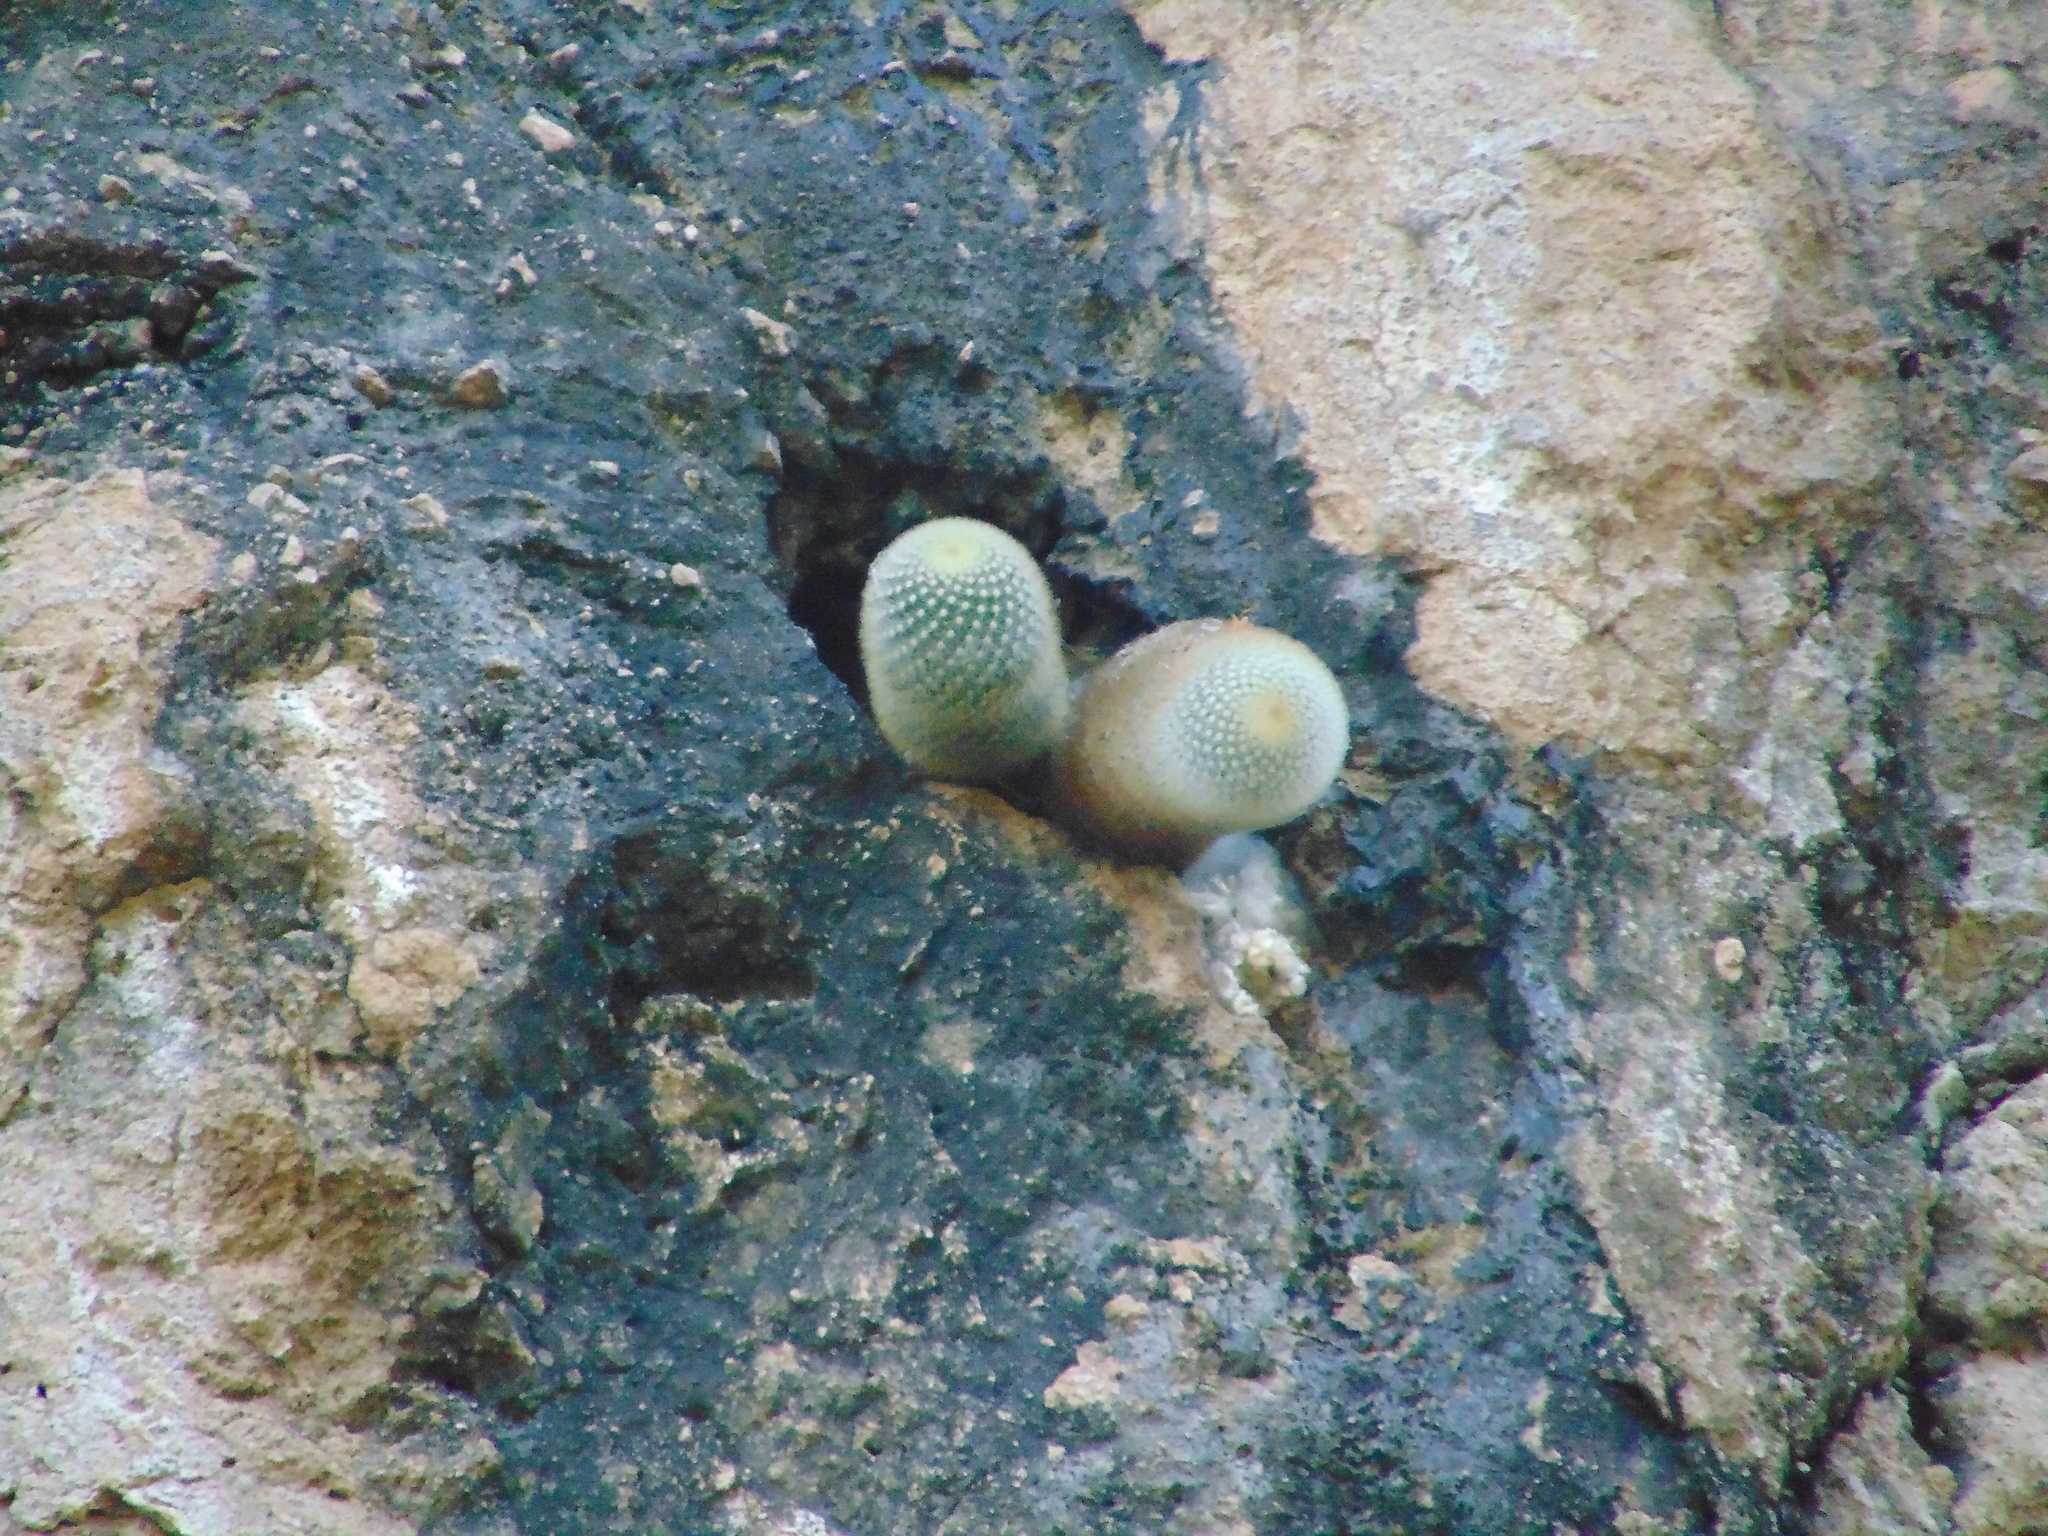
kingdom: Plantae
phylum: Tracheophyta
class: Magnoliopsida
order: Caryophyllales
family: Cactaceae
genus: Mammillaria
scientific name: Mammillaria spinosissima
